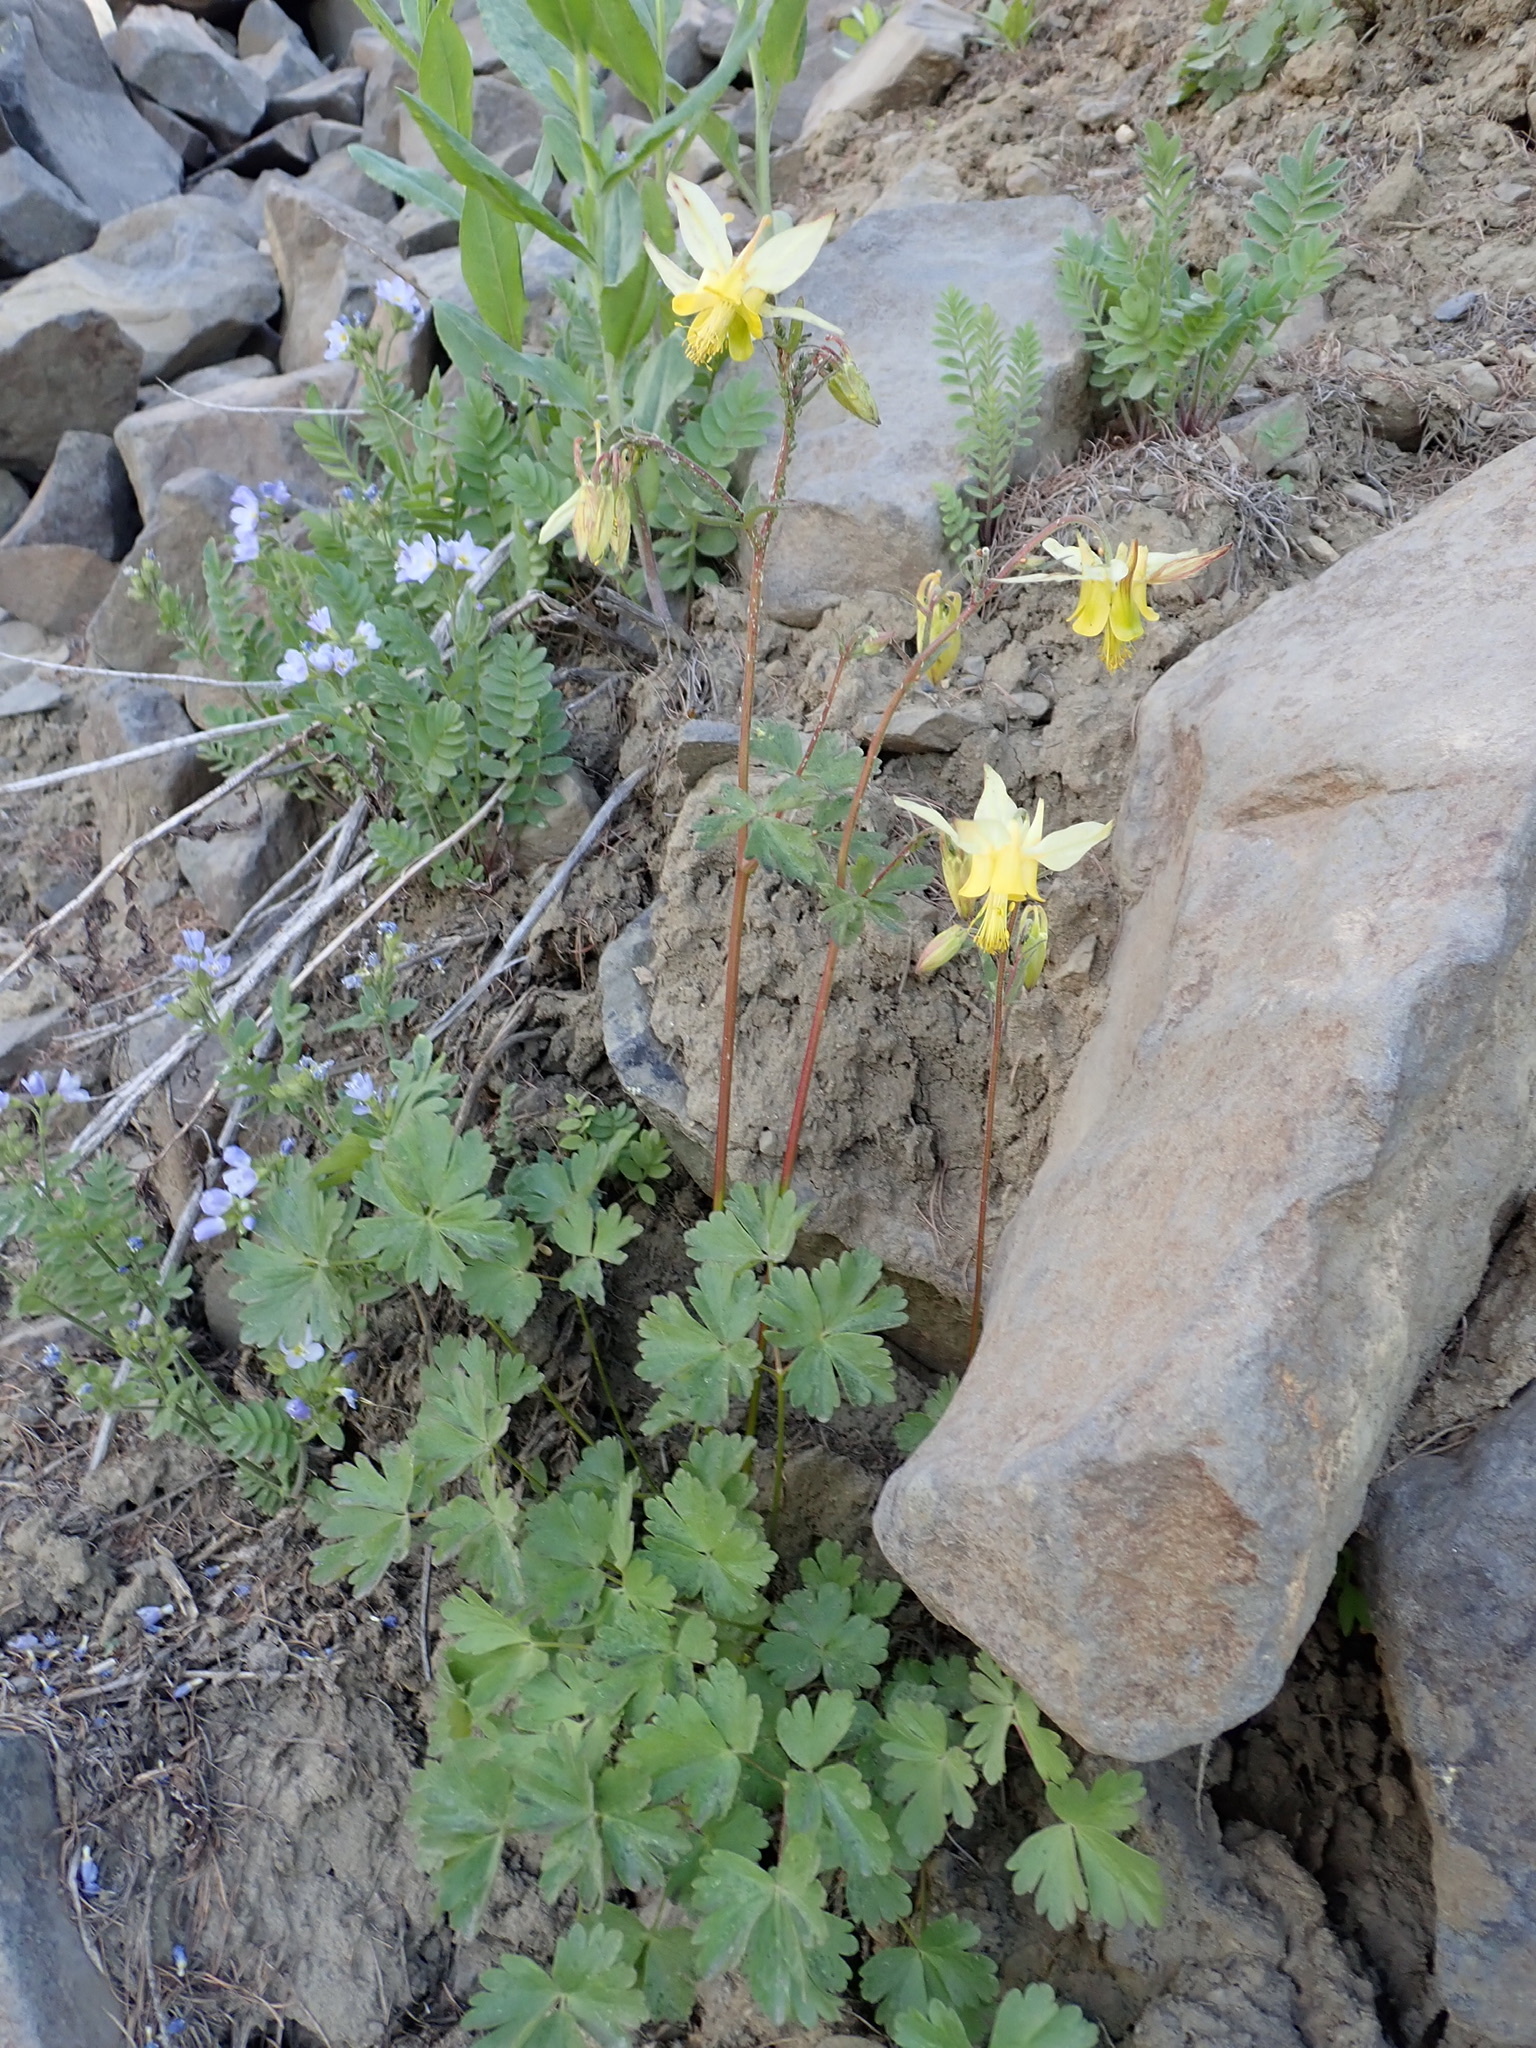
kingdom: Plantae
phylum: Tracheophyta
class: Magnoliopsida
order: Ranunculales
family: Ranunculaceae
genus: Aquilegia
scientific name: Aquilegia flavescens
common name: Yellow columbine
